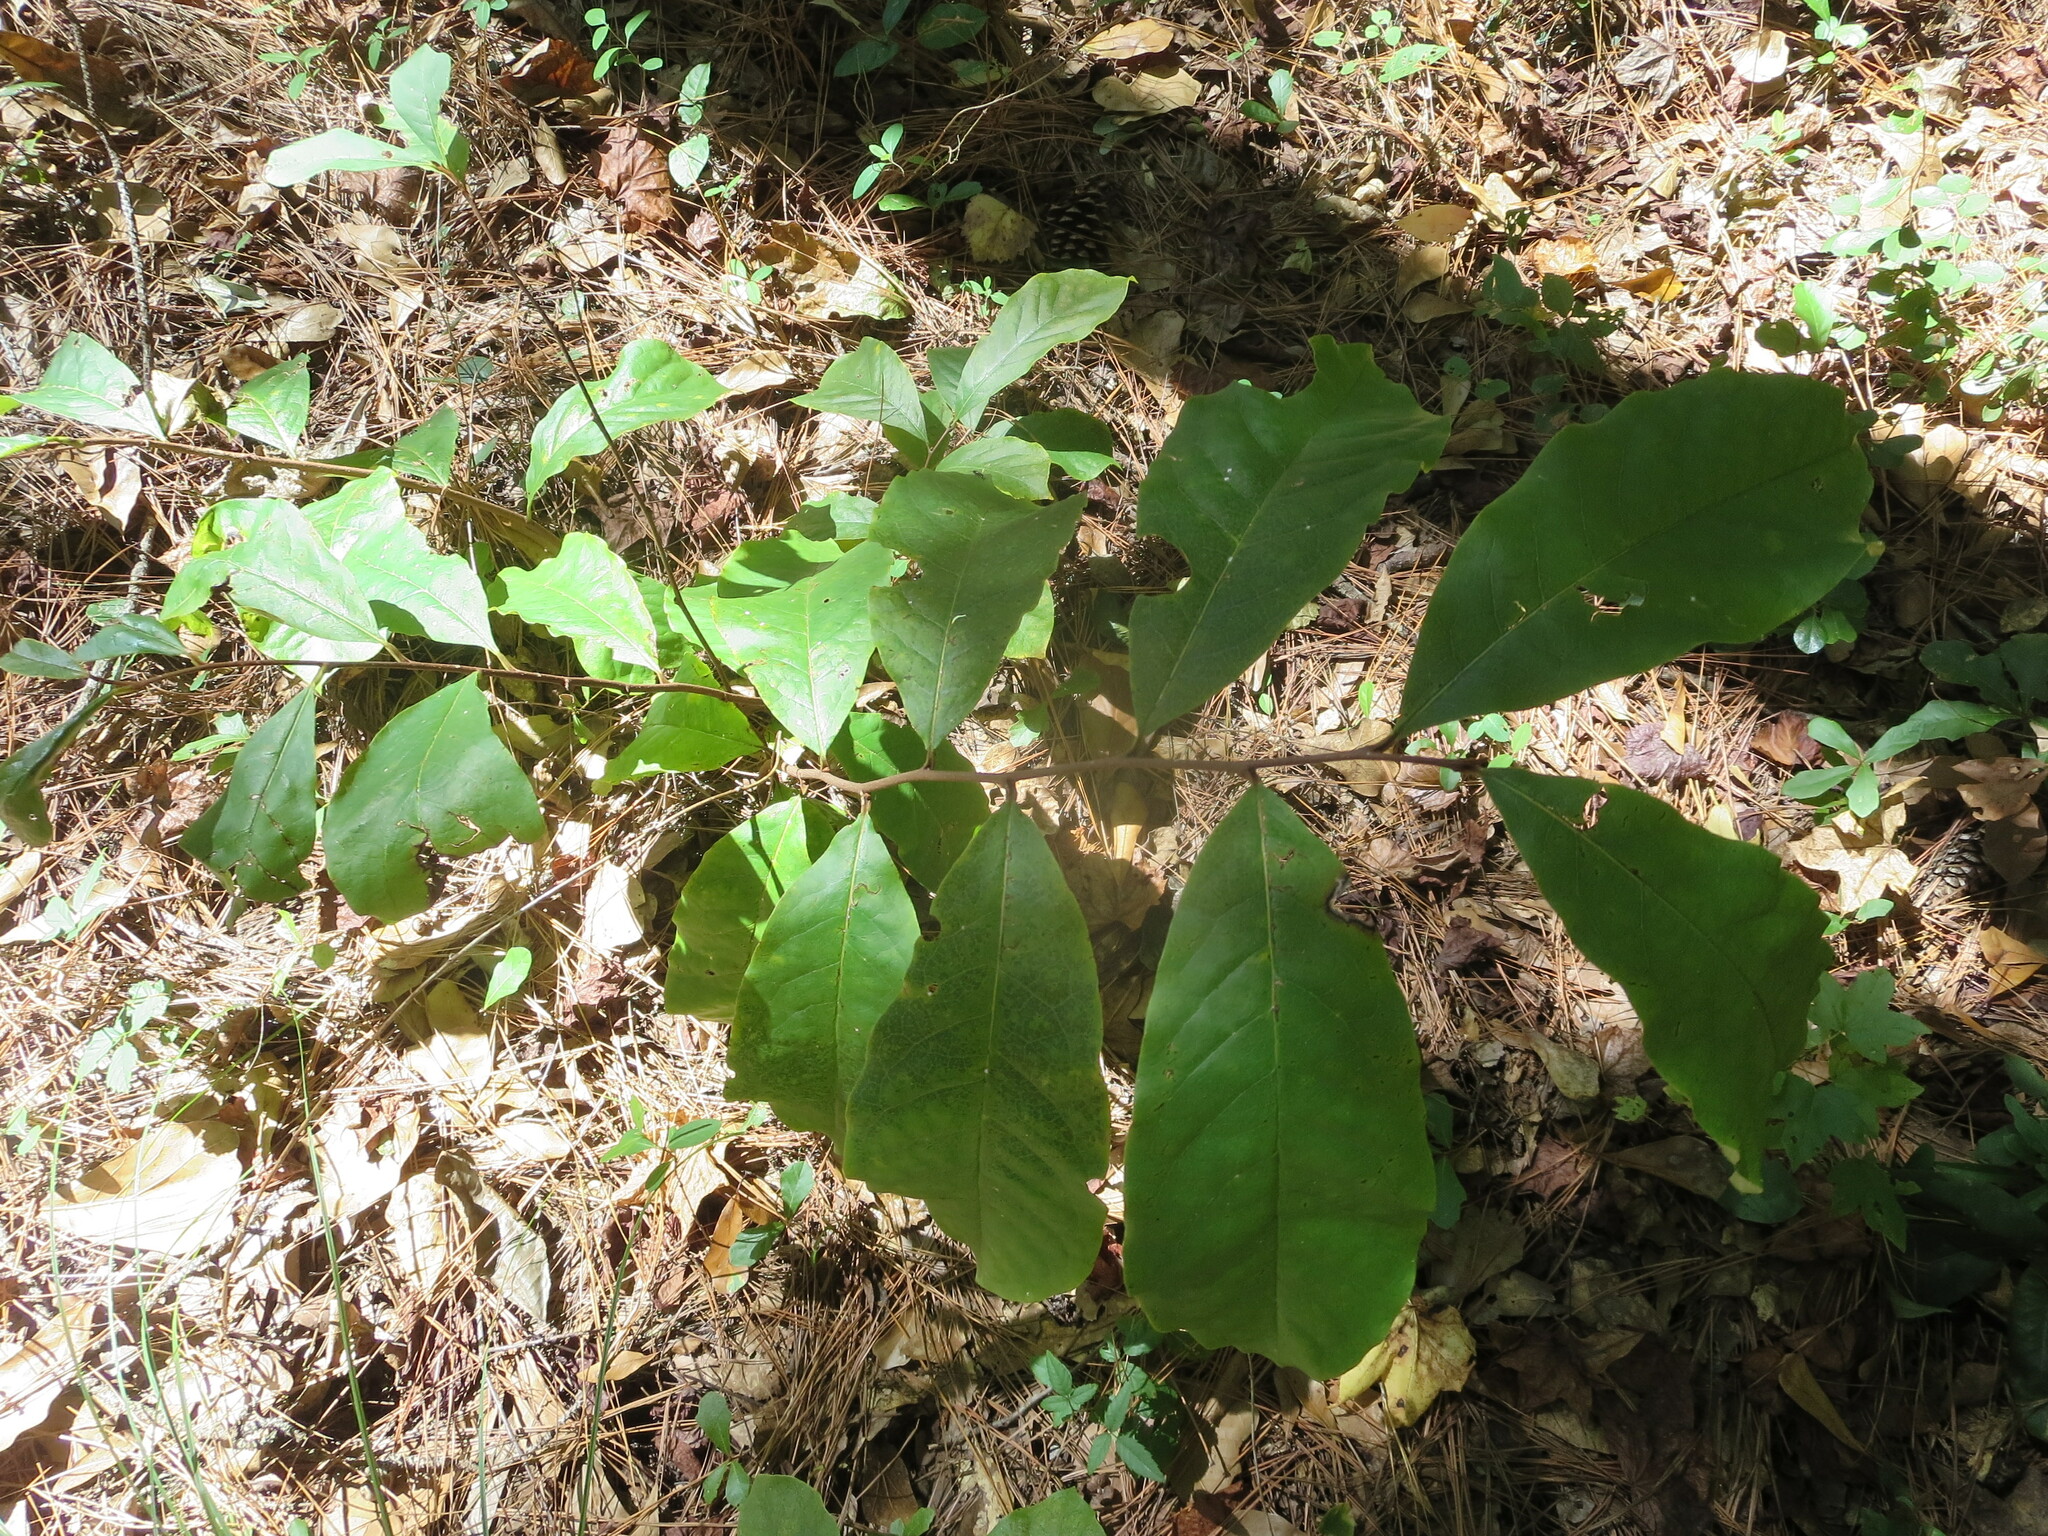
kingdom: Plantae
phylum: Tracheophyta
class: Magnoliopsida
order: Magnoliales
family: Annonaceae
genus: Asimina
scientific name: Asimina parviflora
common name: Dwarf pawpaw
